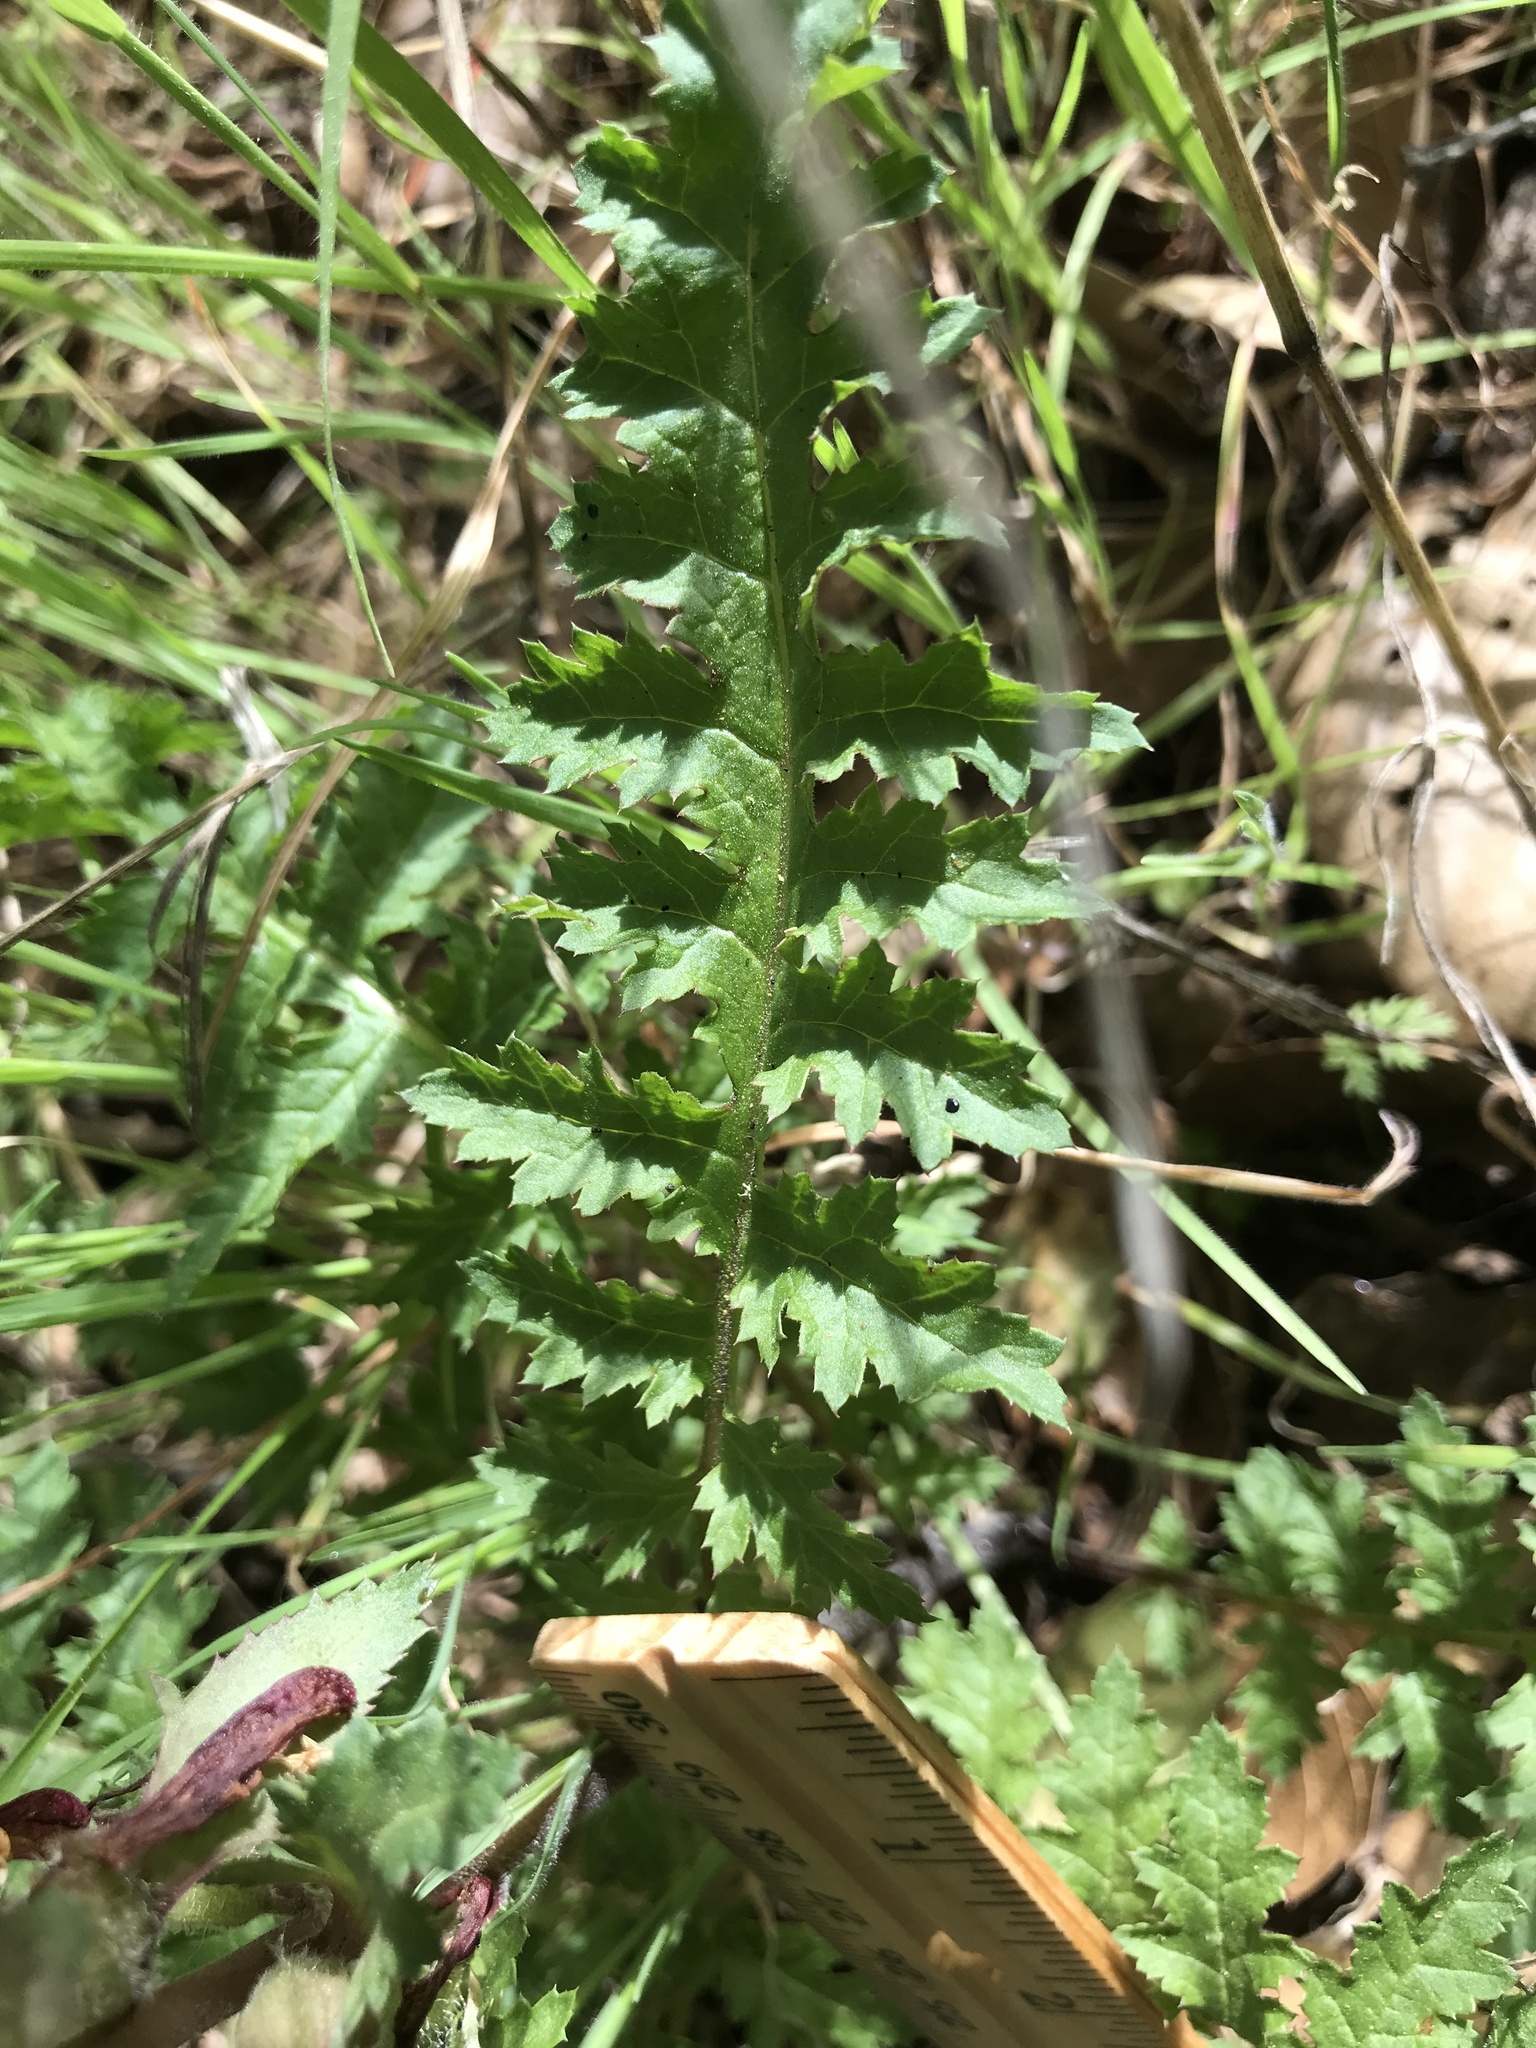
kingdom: Plantae
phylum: Tracheophyta
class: Magnoliopsida
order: Lamiales
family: Orobanchaceae
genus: Pedicularis
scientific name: Pedicularis densiflora
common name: Indian warrior
